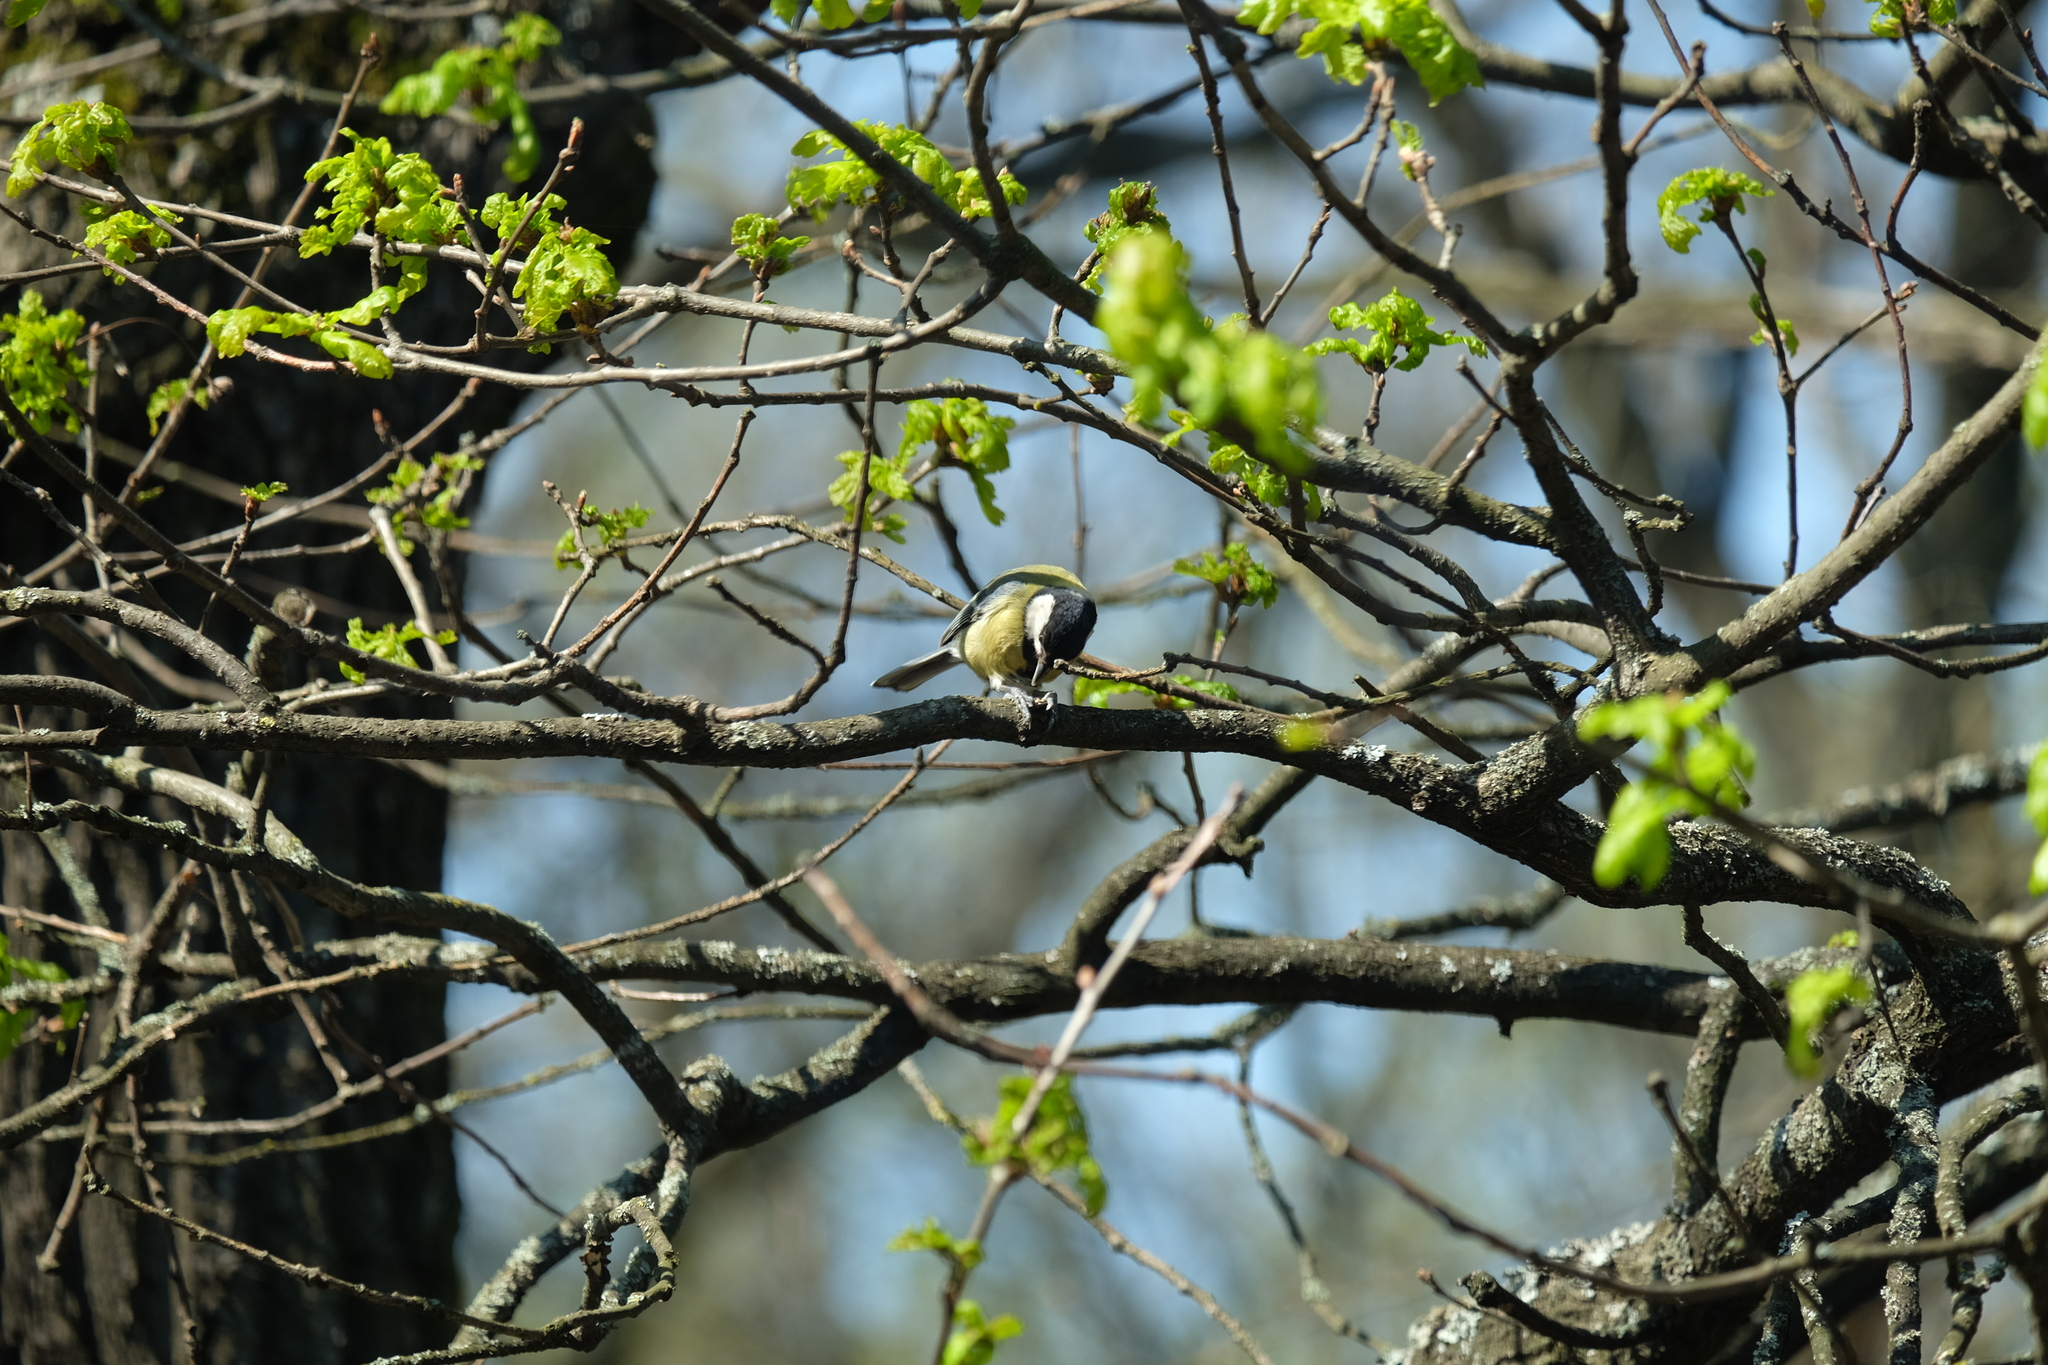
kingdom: Animalia
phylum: Chordata
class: Aves
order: Passeriformes
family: Paridae
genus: Parus
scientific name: Parus major
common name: Great tit
